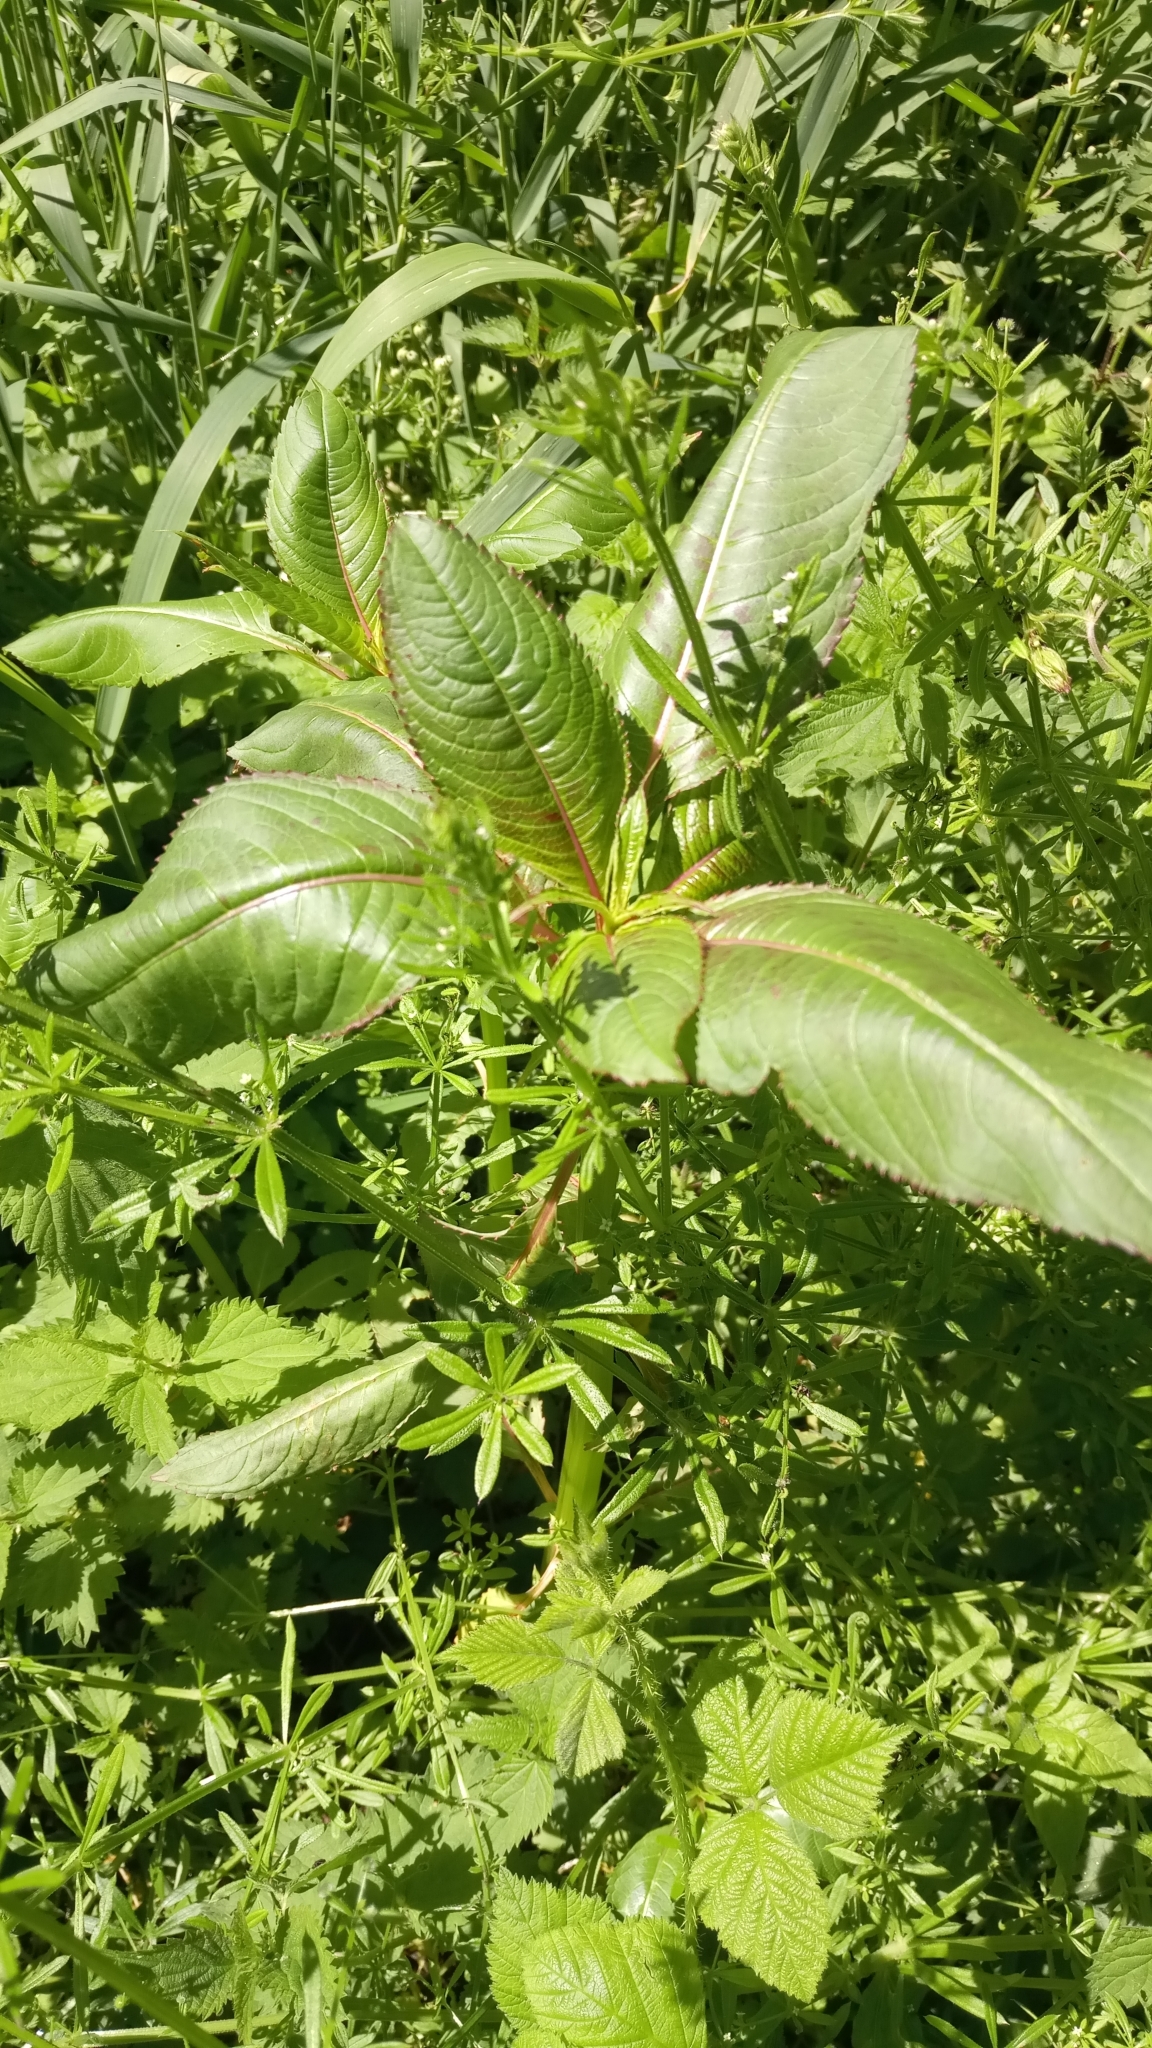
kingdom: Plantae
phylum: Tracheophyta
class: Magnoliopsida
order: Ericales
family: Balsaminaceae
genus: Impatiens
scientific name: Impatiens glandulifera
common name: Himalayan balsam
